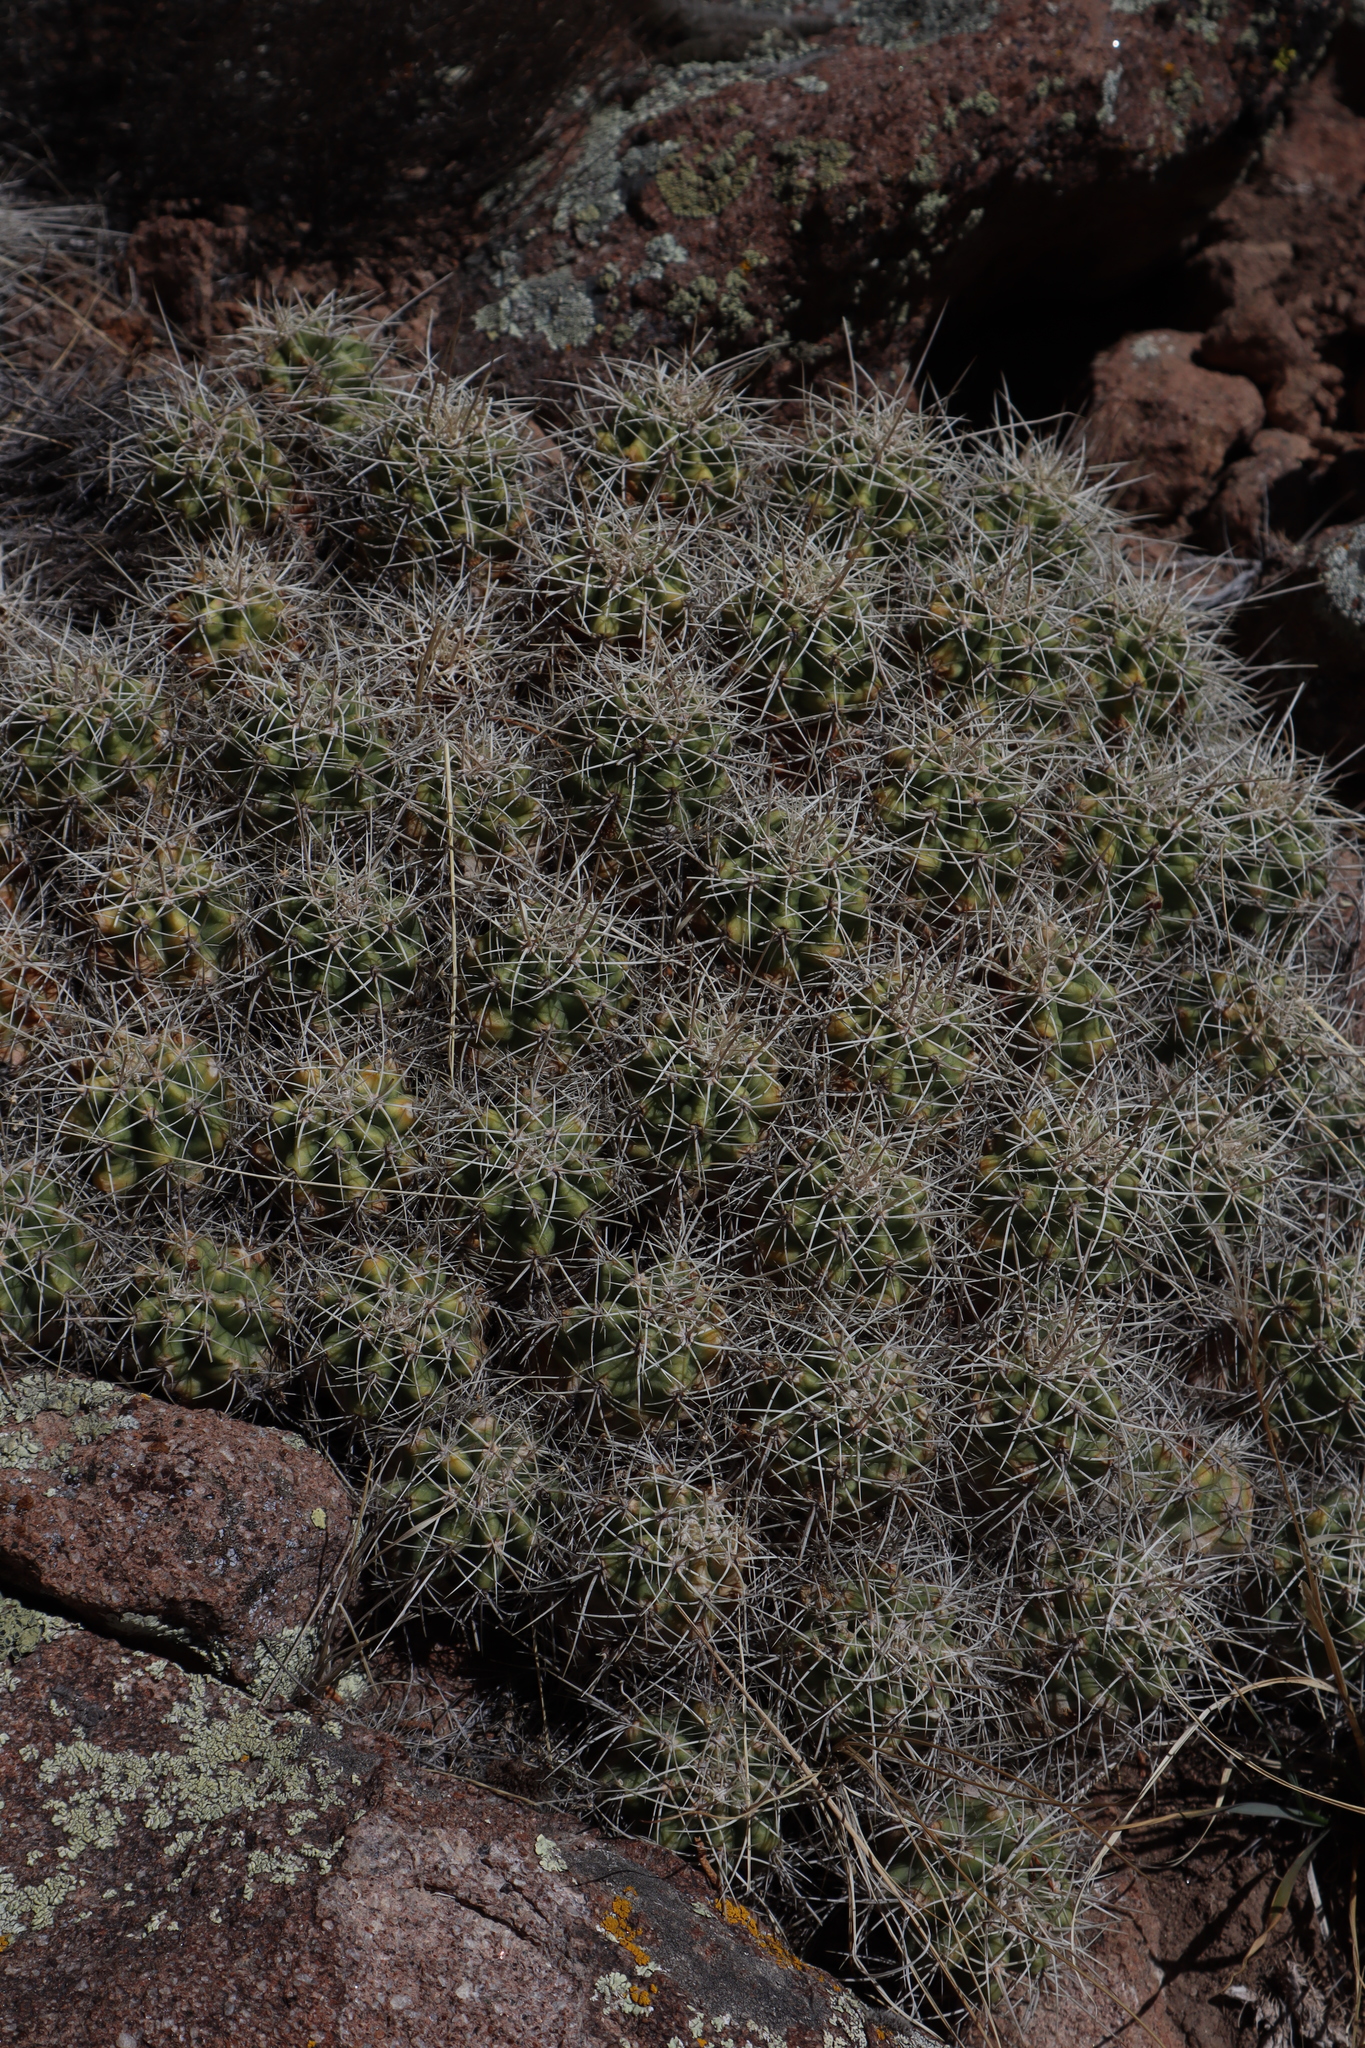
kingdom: Plantae
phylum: Tracheophyta
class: Magnoliopsida
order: Caryophyllales
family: Cactaceae
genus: Echinocereus
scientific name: Echinocereus triglochidiatus
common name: Claretcup hedgehog
